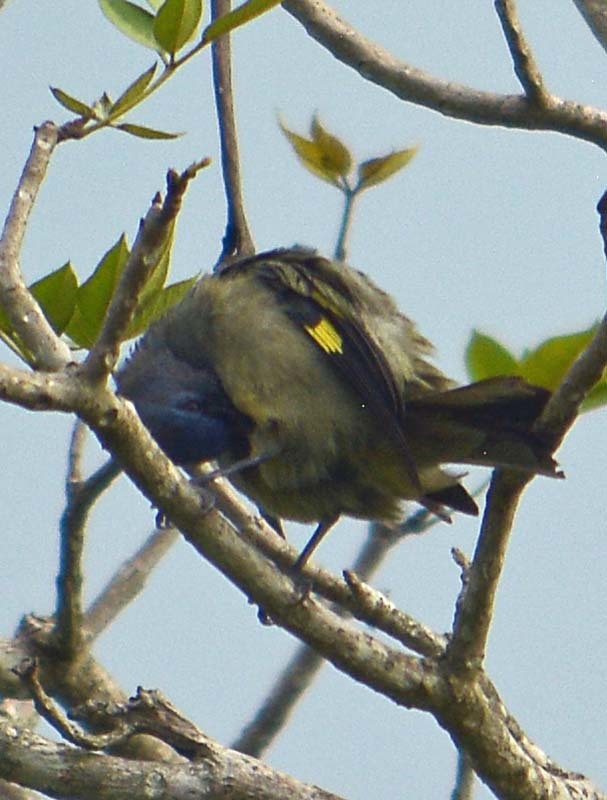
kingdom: Animalia
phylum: Chordata
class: Aves
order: Passeriformes
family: Thraupidae
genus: Thraupis
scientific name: Thraupis abbas
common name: Yellow-winged tanager
